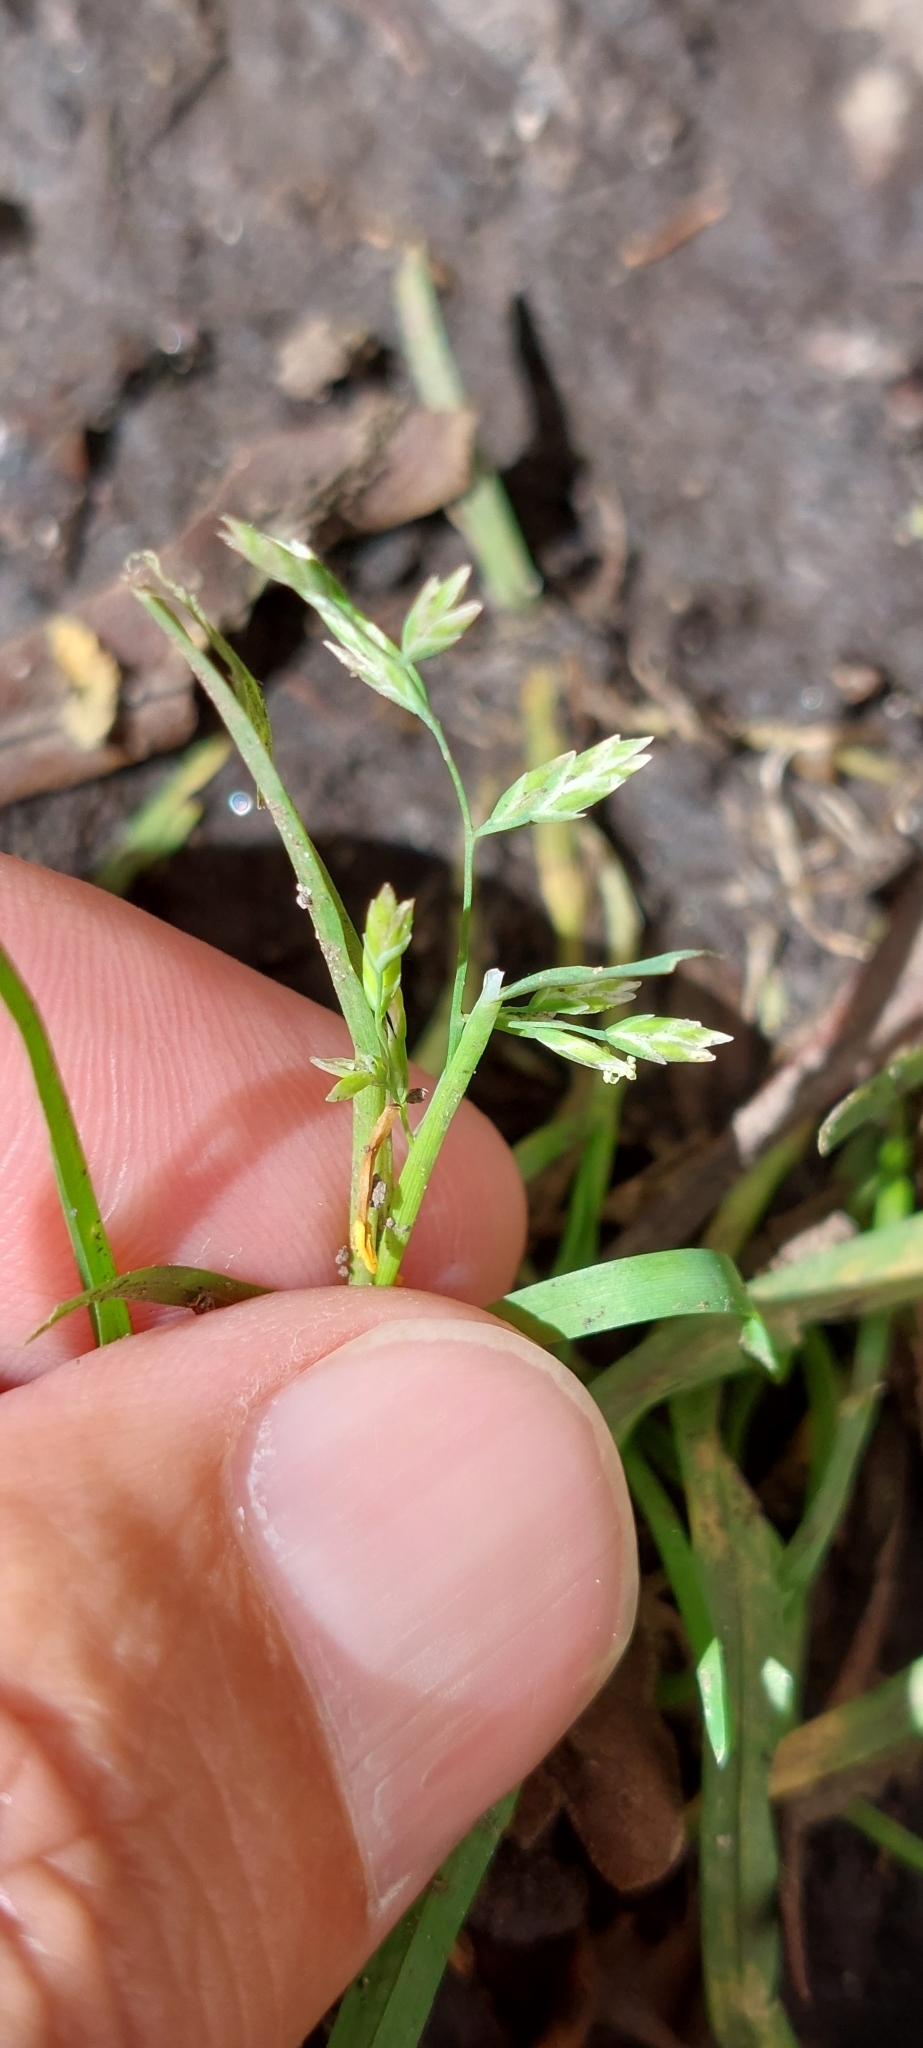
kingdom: Plantae
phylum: Tracheophyta
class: Liliopsida
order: Poales
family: Poaceae
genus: Poa
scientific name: Poa annua
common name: Annual bluegrass
